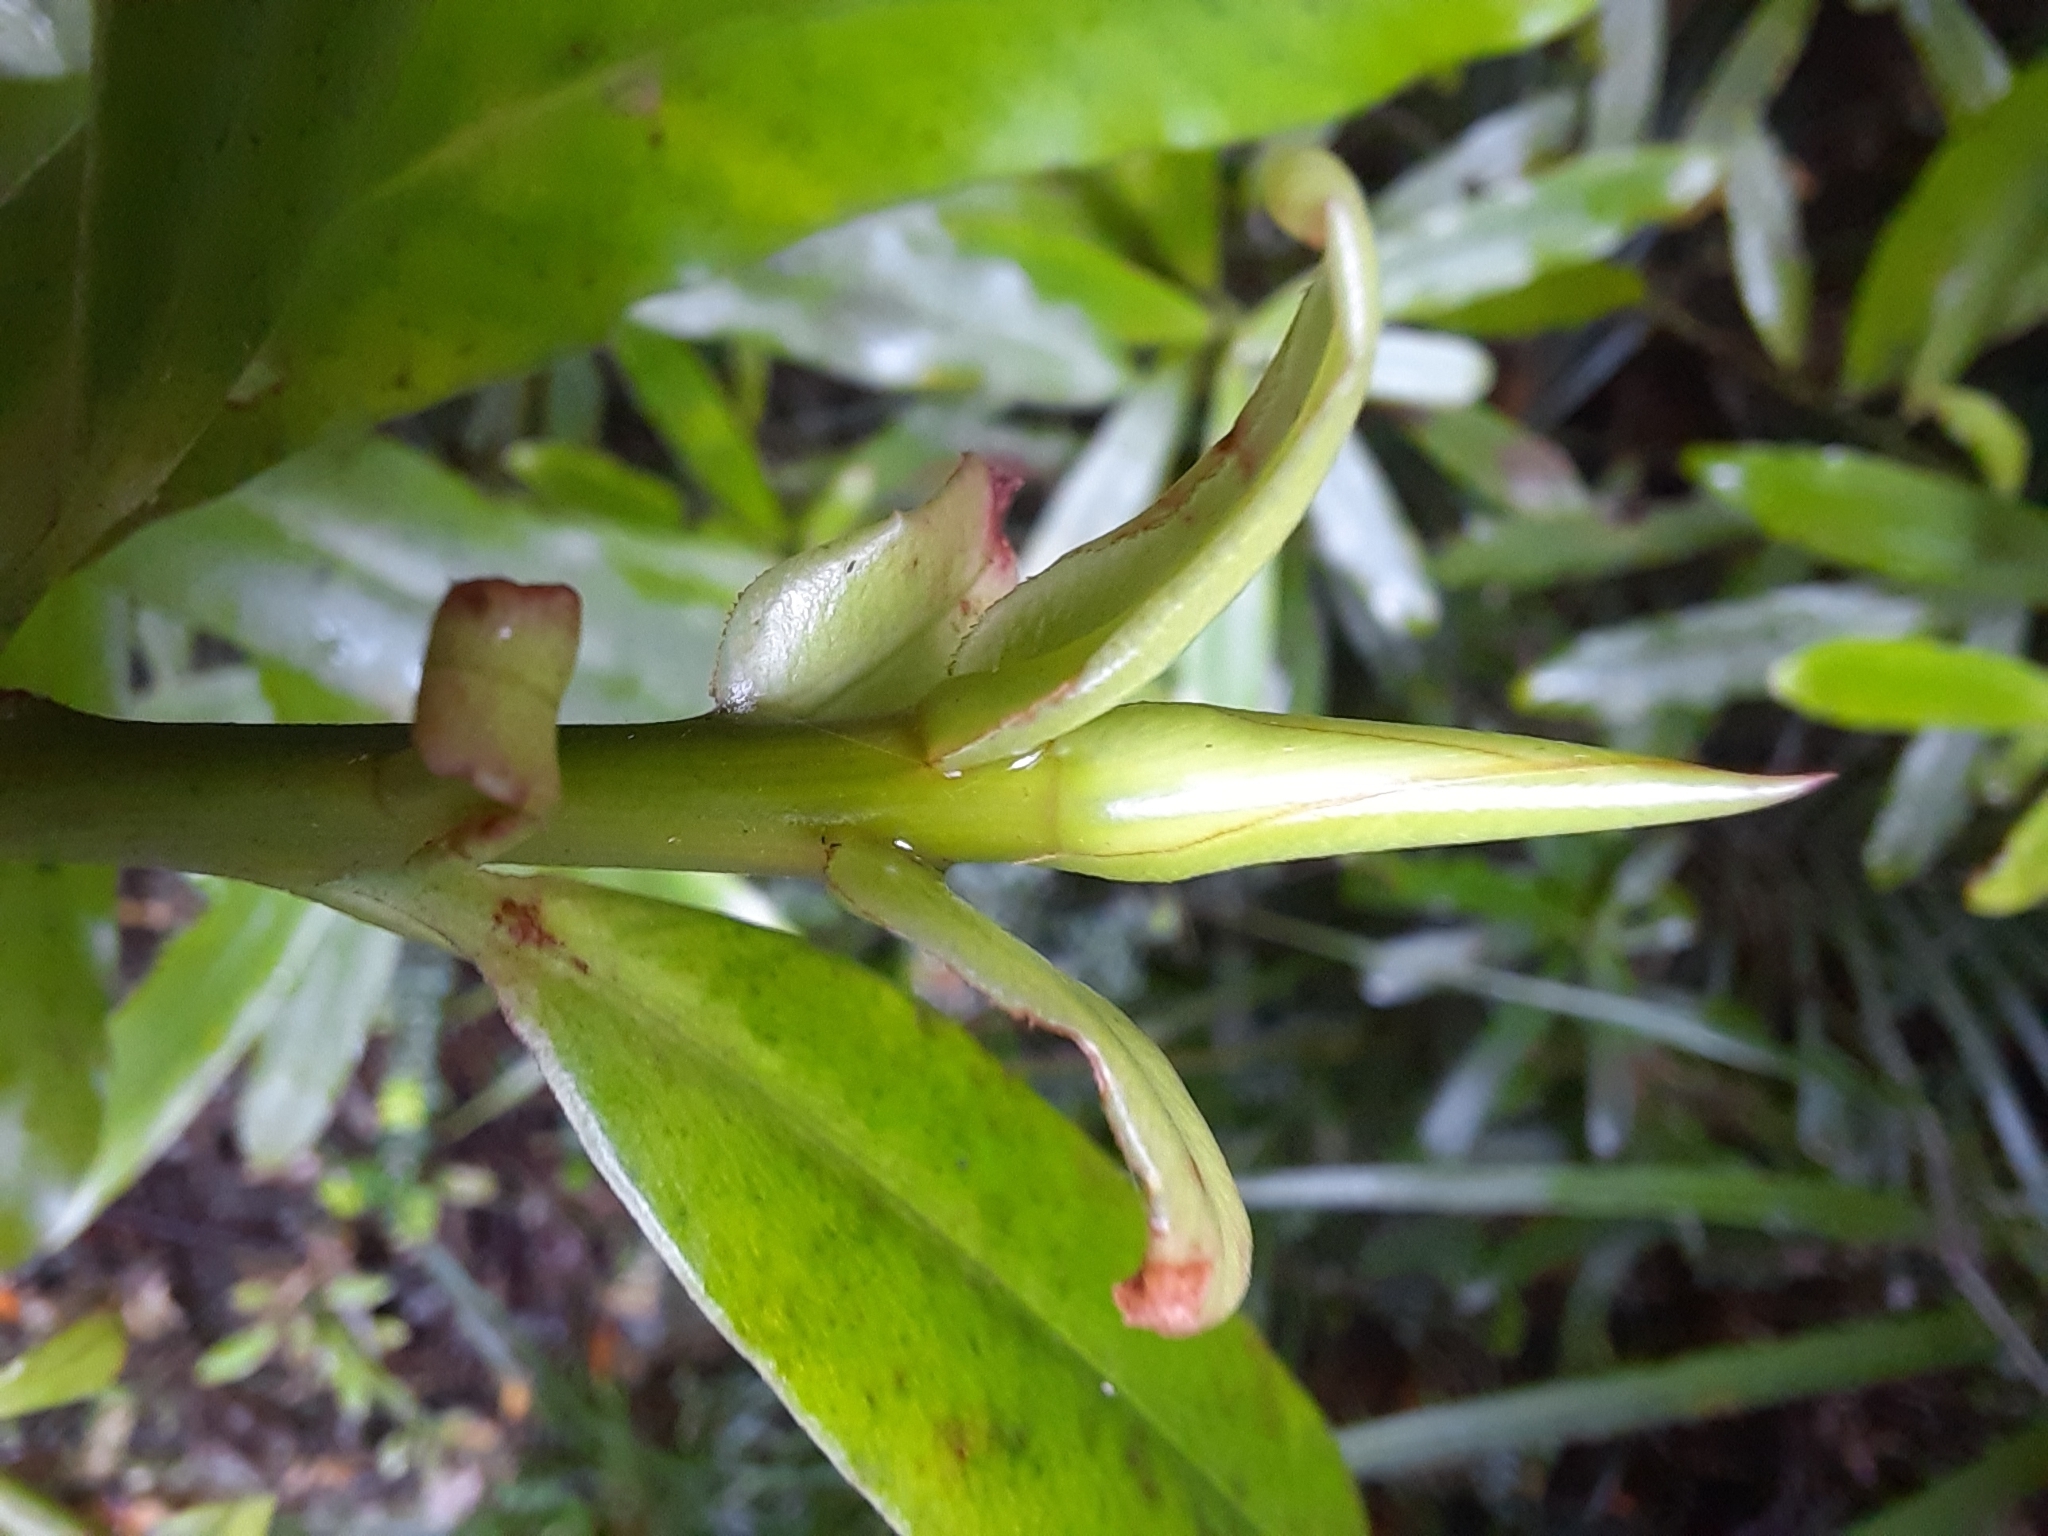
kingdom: Plantae
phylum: Tracheophyta
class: Magnoliopsida
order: Ericales
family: Primulaceae
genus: Myrsine
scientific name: Myrsine salicina
